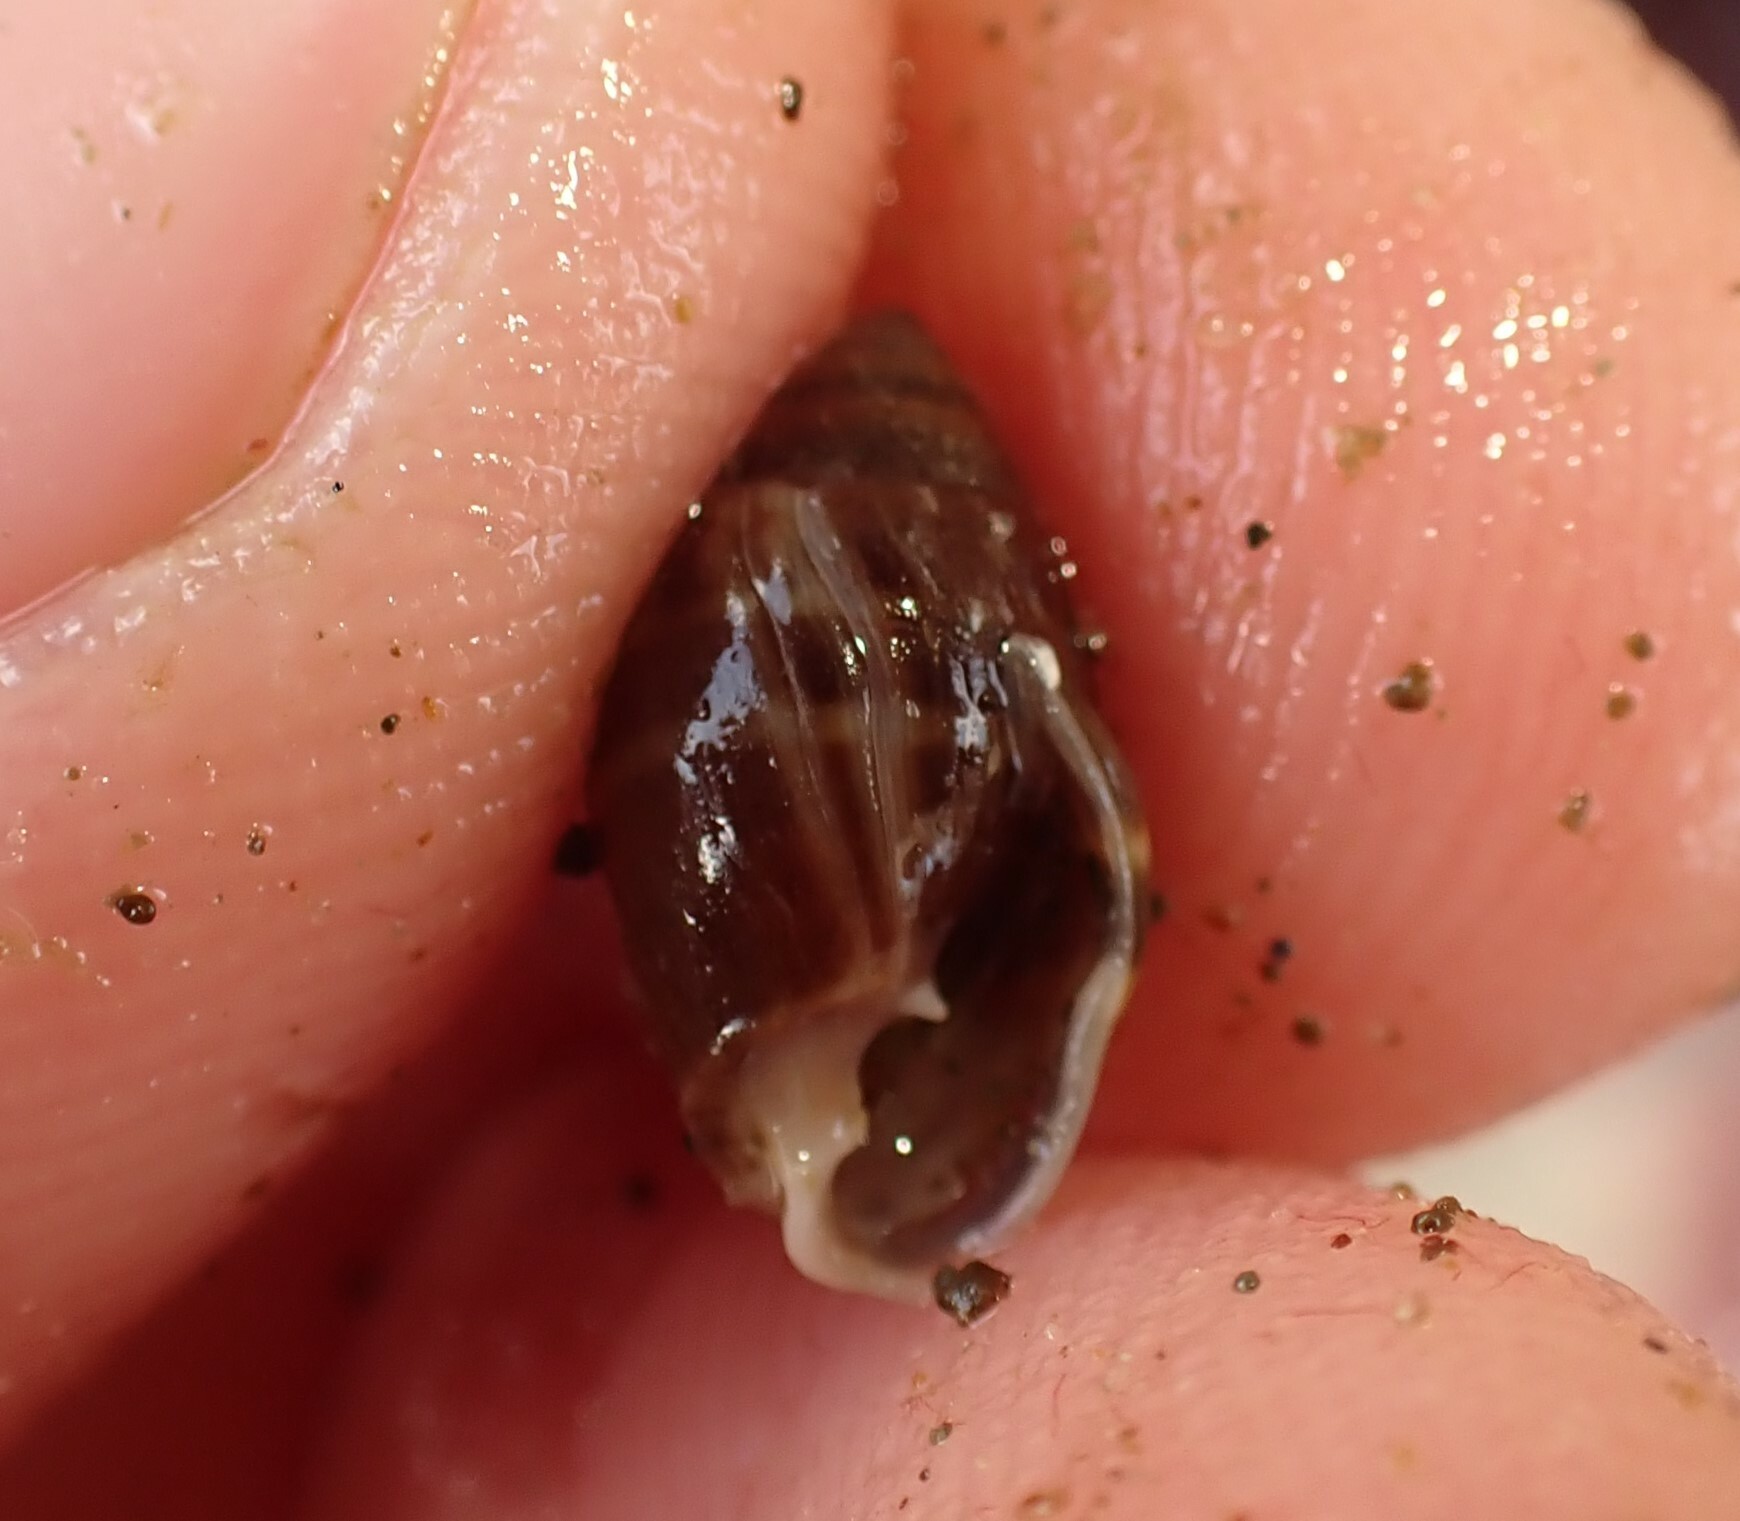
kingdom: Animalia
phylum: Mollusca
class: Gastropoda
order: Ellobiida
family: Ellobiidae
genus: Pleuroloba
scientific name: Pleuroloba costellaris
